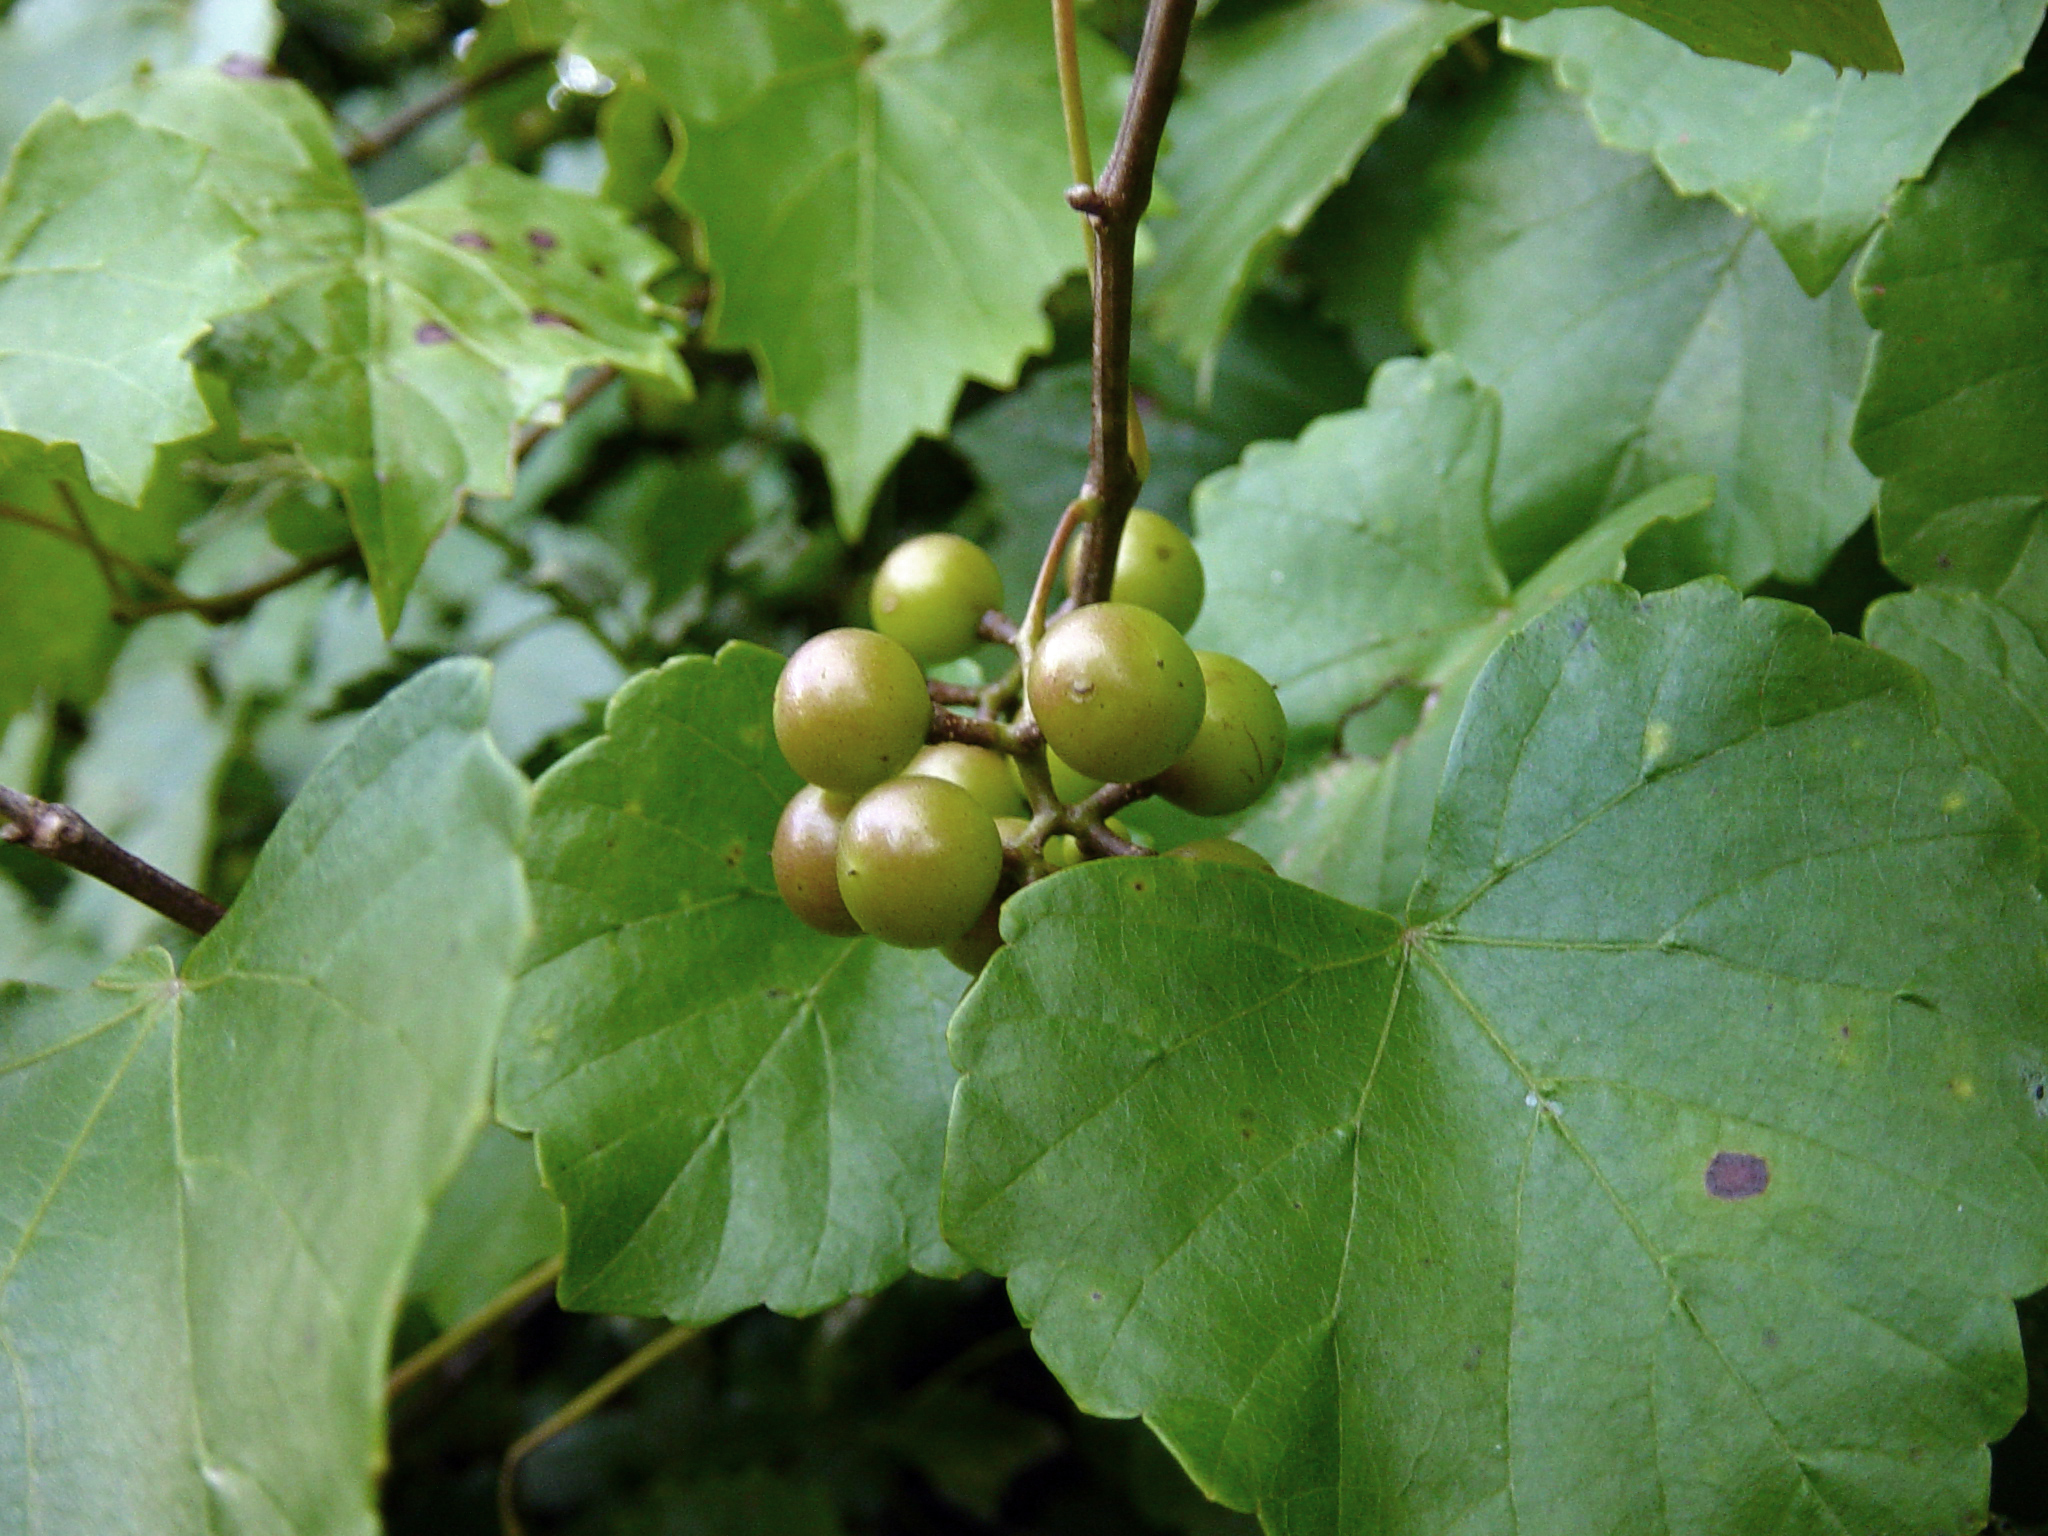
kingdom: Plantae
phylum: Tracheophyta
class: Magnoliopsida
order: Vitales
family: Vitaceae
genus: Vitis
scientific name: Vitis rotundifolia
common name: Muscadine grape
